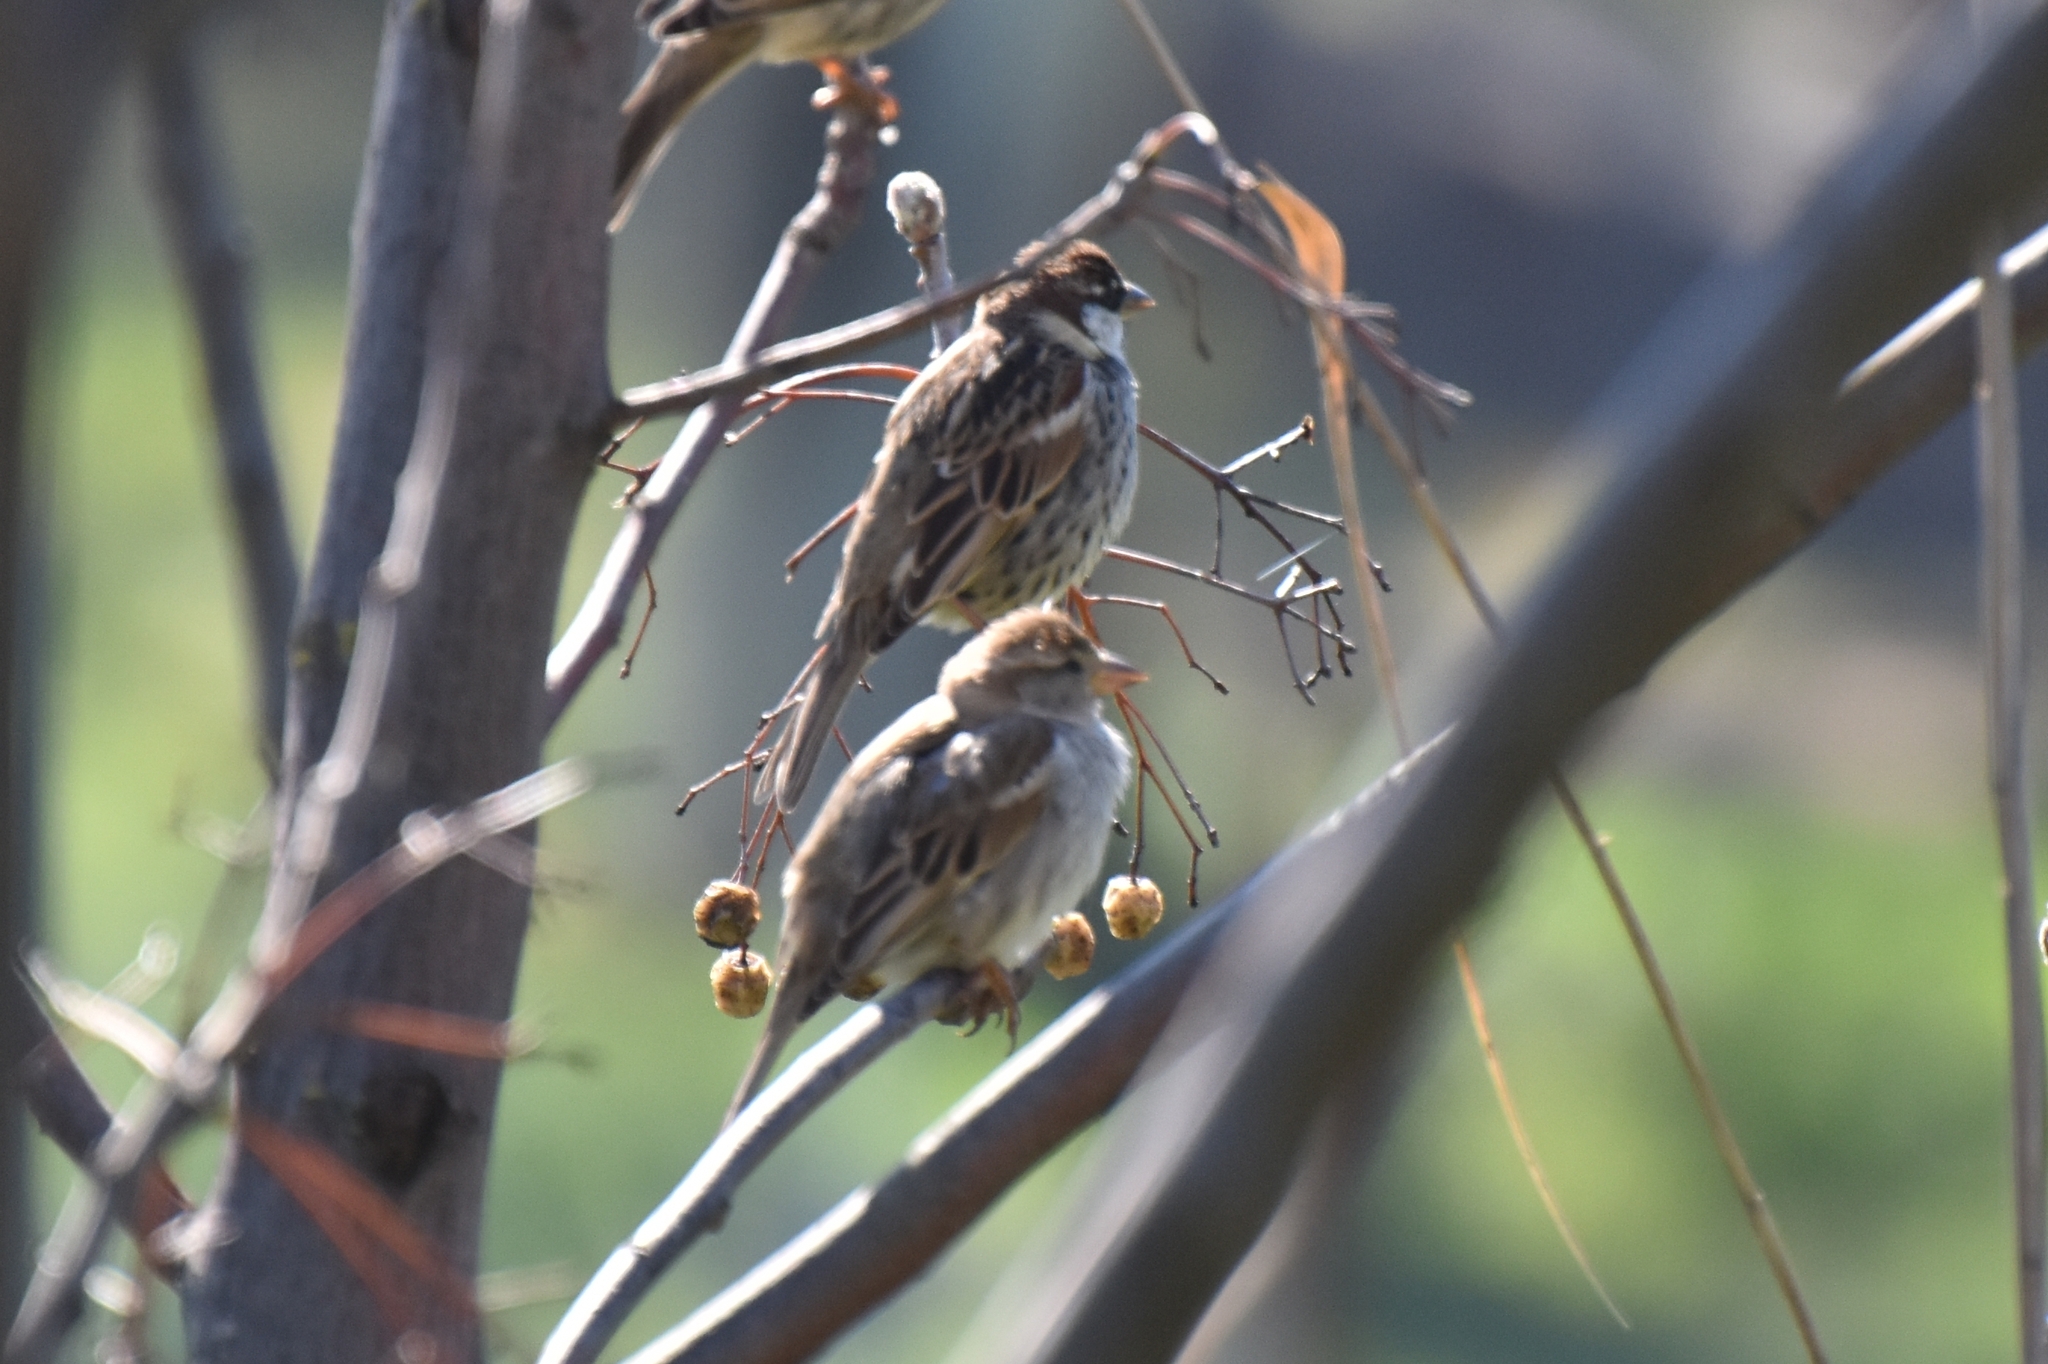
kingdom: Animalia
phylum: Chordata
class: Aves
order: Passeriformes
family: Passeridae
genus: Passer
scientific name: Passer hispaniolensis
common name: Spanish sparrow
